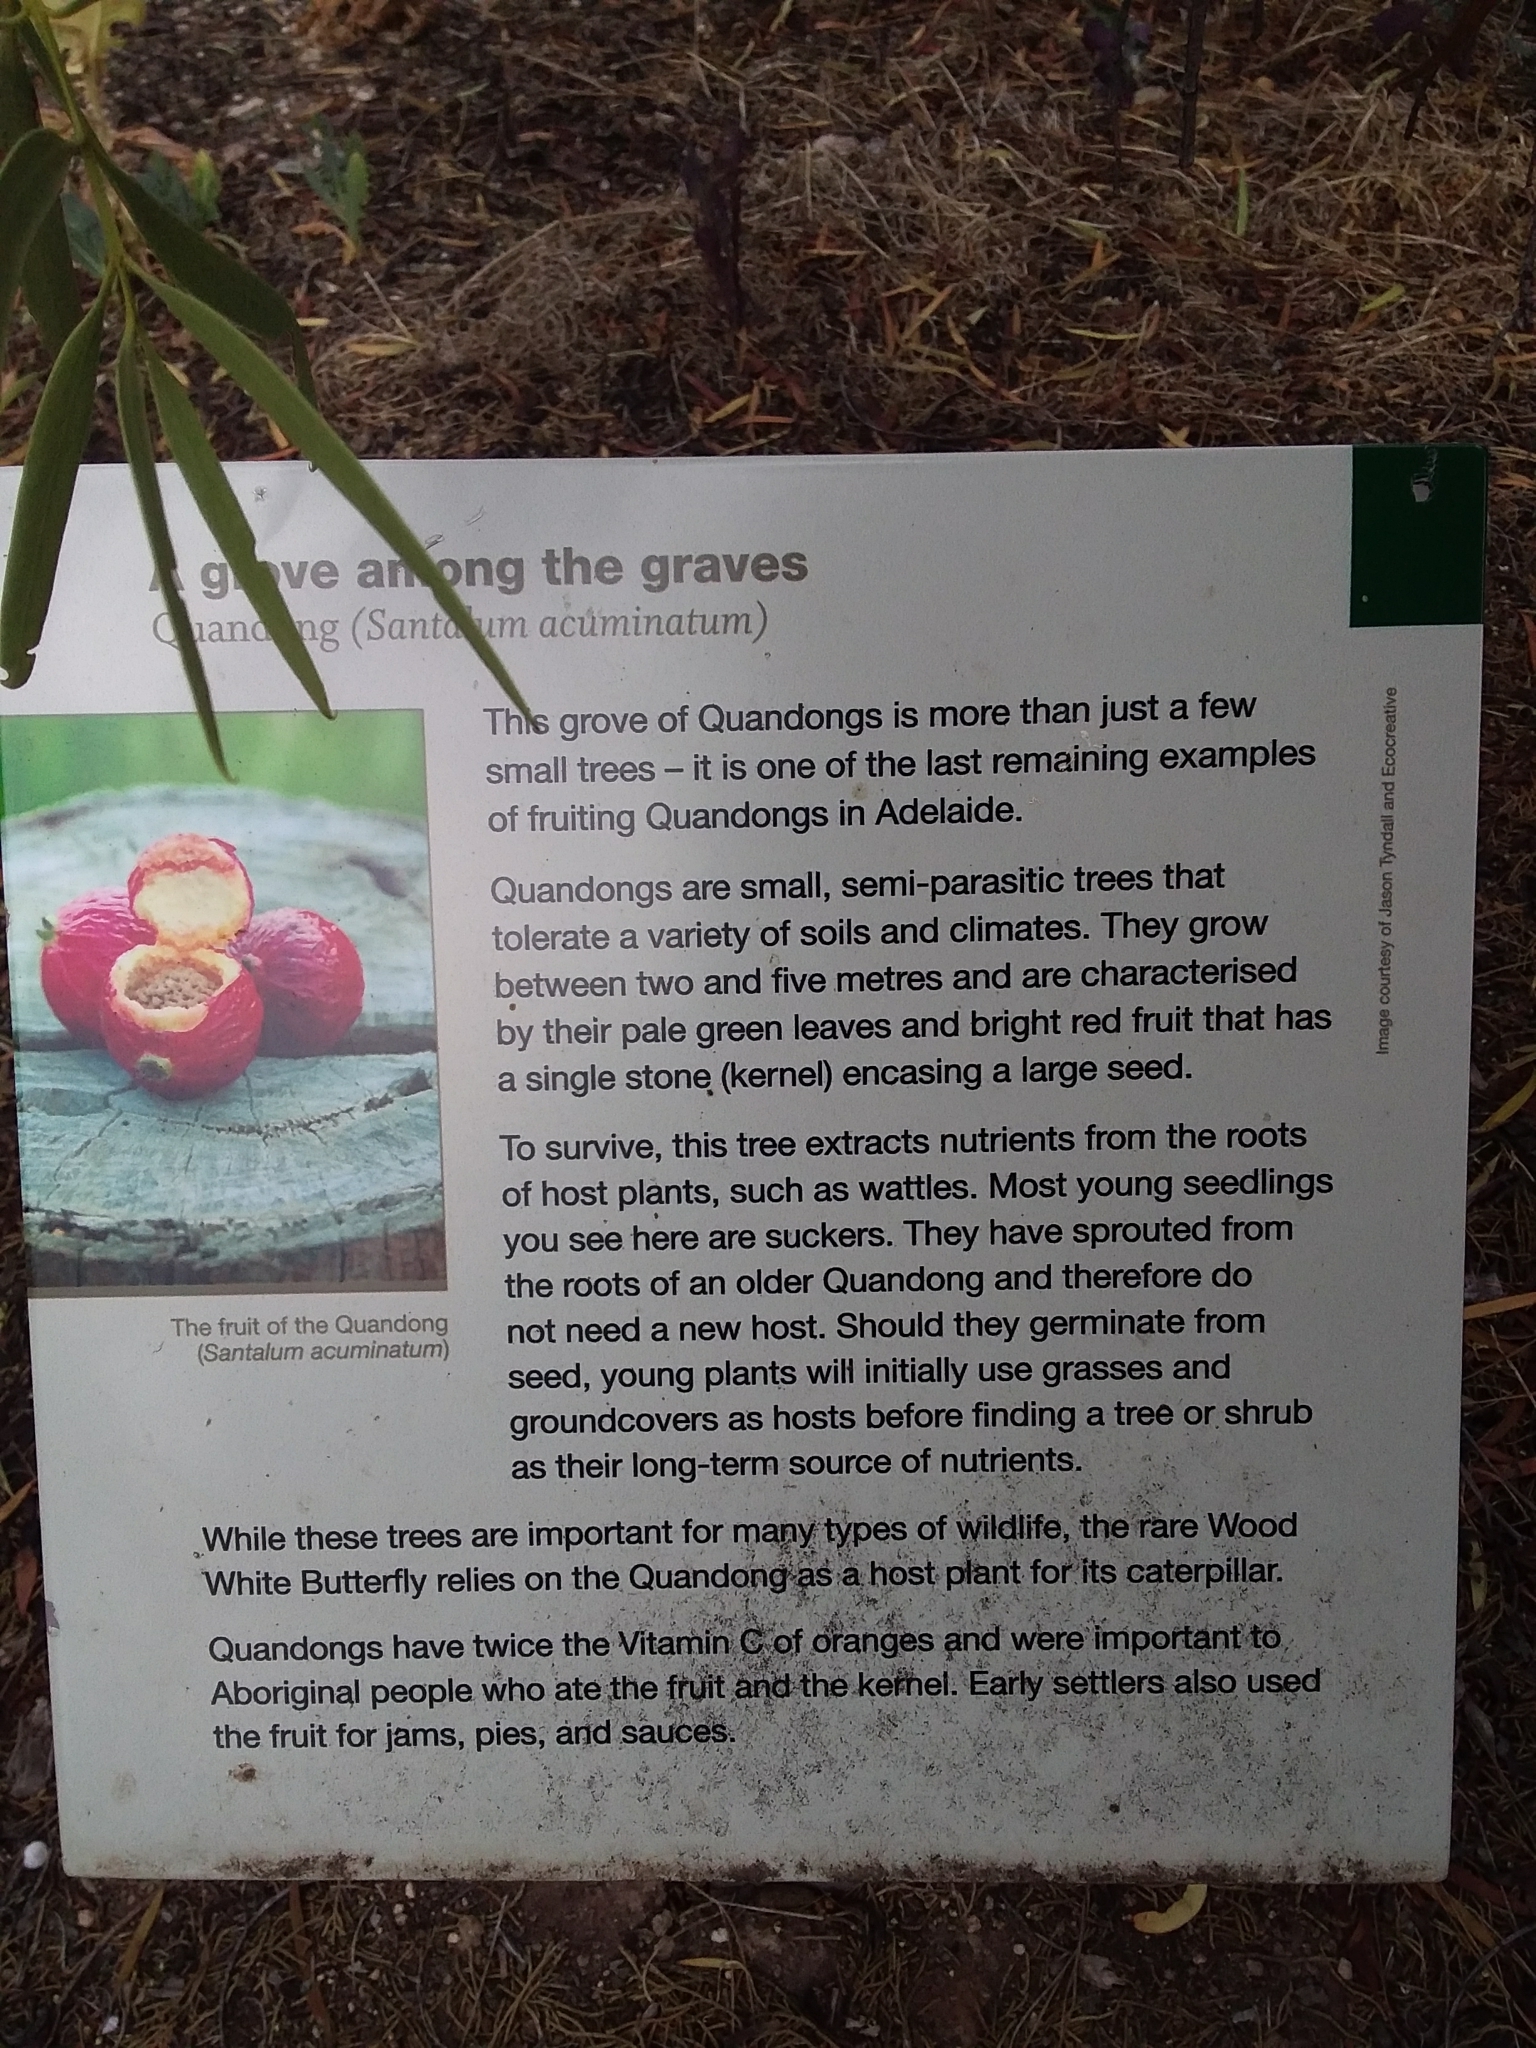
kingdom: Plantae
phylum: Tracheophyta
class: Magnoliopsida
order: Santalales
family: Santalaceae
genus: Santalum
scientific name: Santalum acuminatum
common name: Sweet quandong
